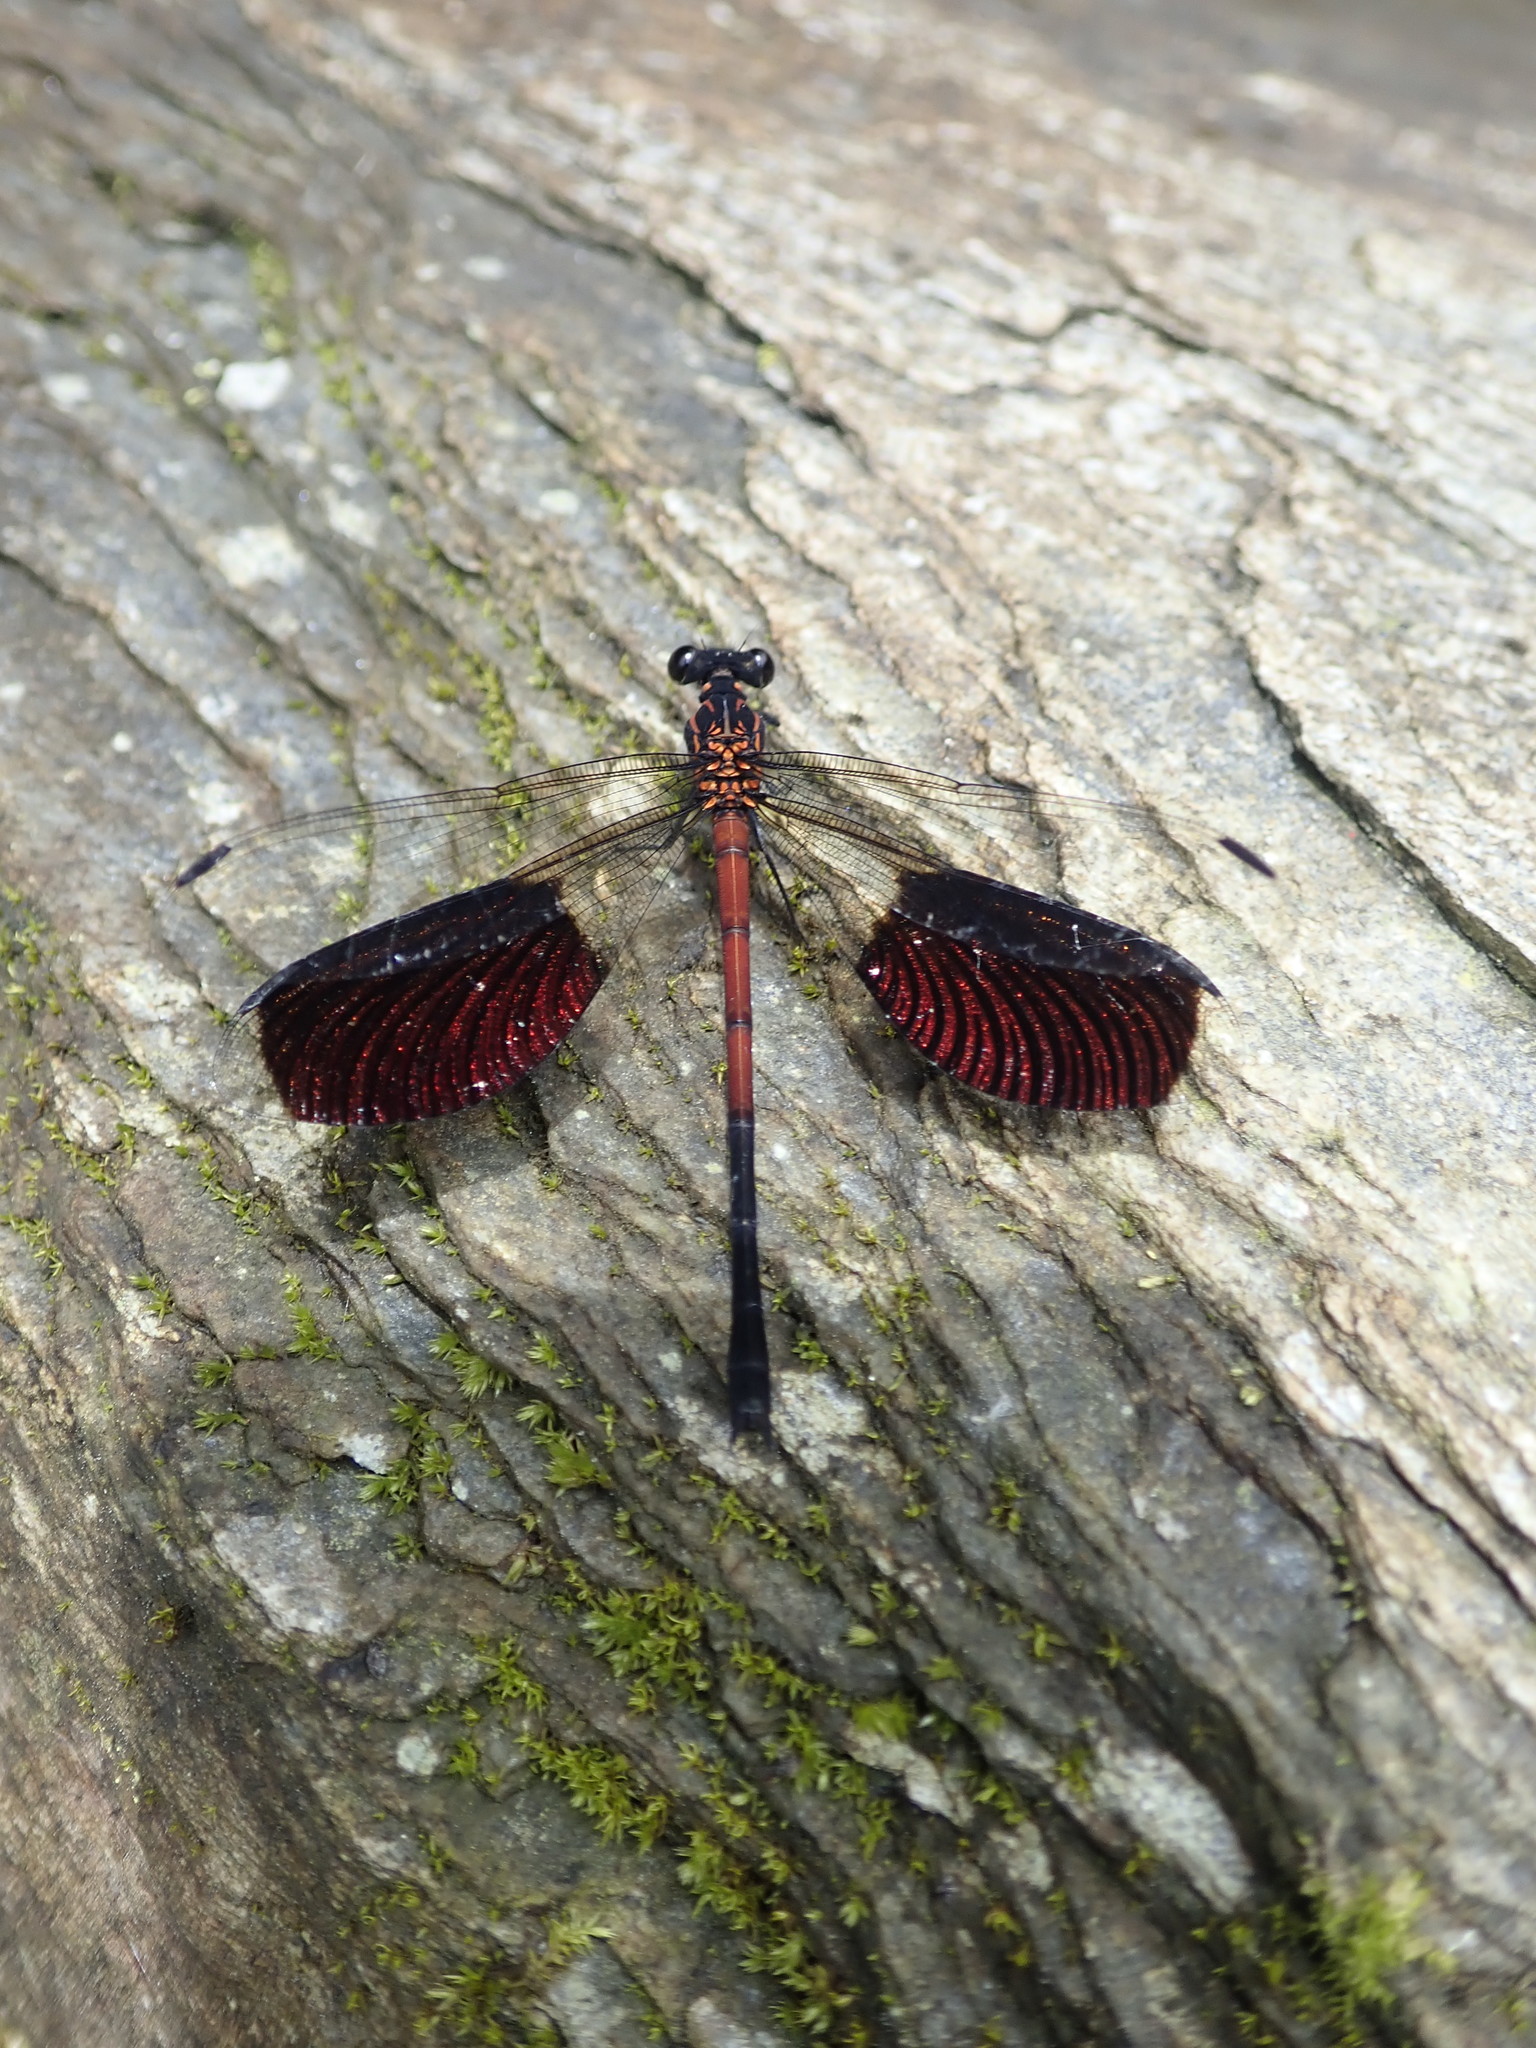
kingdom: Animalia
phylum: Arthropoda
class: Insecta
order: Odonata
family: Euphaeidae
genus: Euphaea
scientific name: Euphaea formosa
